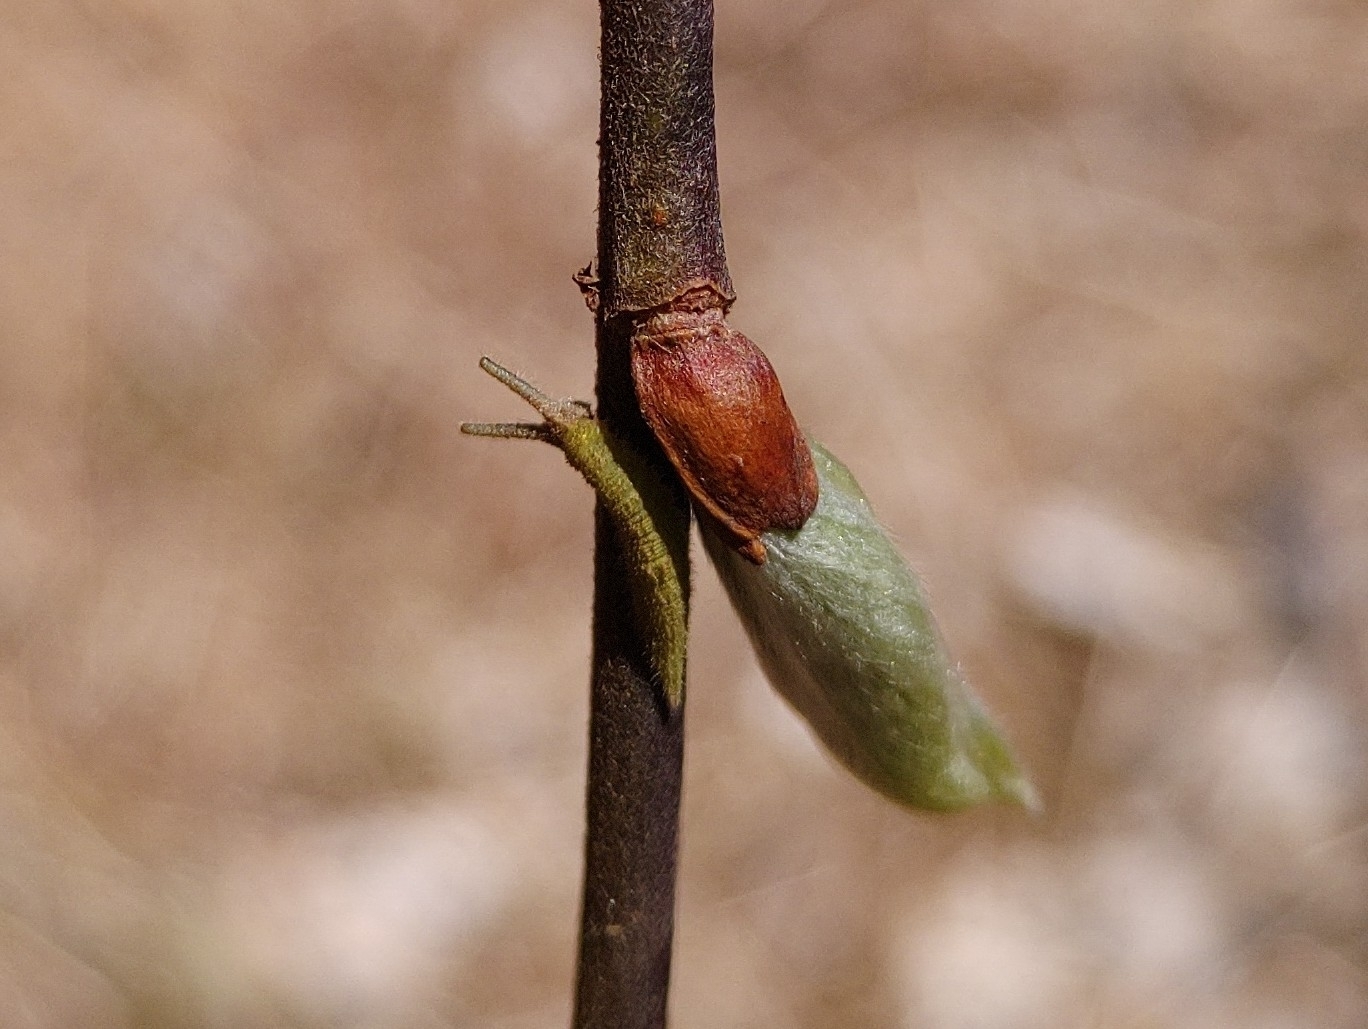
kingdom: Animalia
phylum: Arthropoda
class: Insecta
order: Lepidoptera
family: Nymphalidae
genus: Apatura
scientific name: Apatura iris
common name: Purple emperor
